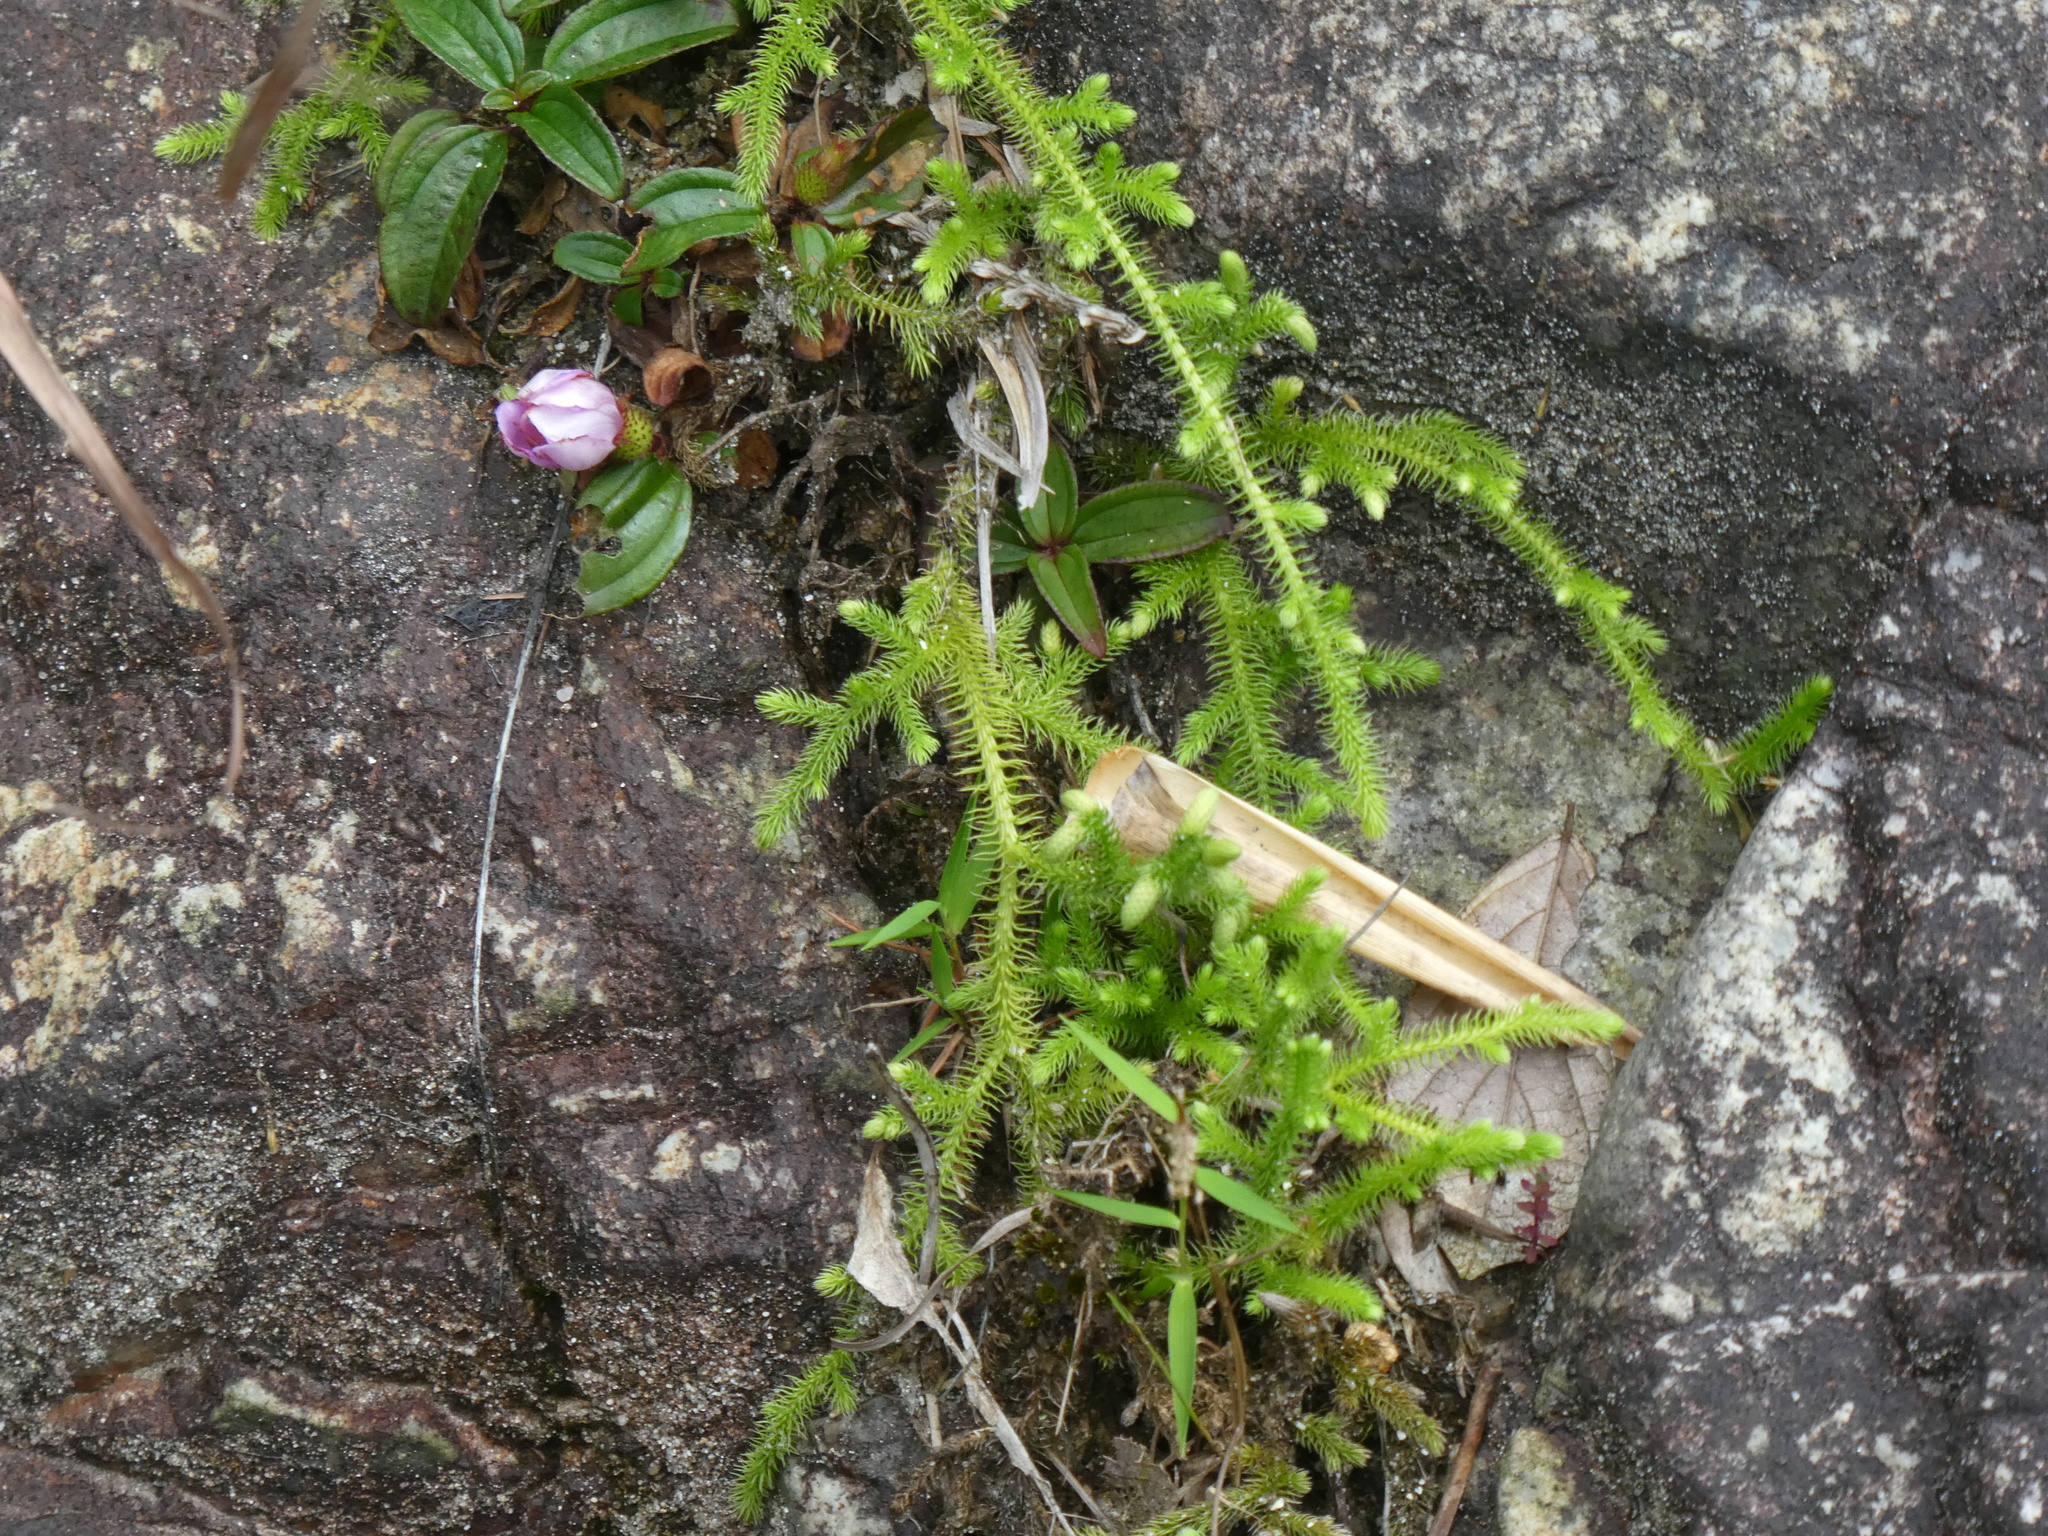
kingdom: Plantae
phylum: Tracheophyta
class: Lycopodiopsida
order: Lycopodiales
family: Lycopodiaceae
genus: Palhinhaea
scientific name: Palhinhaea cernua
